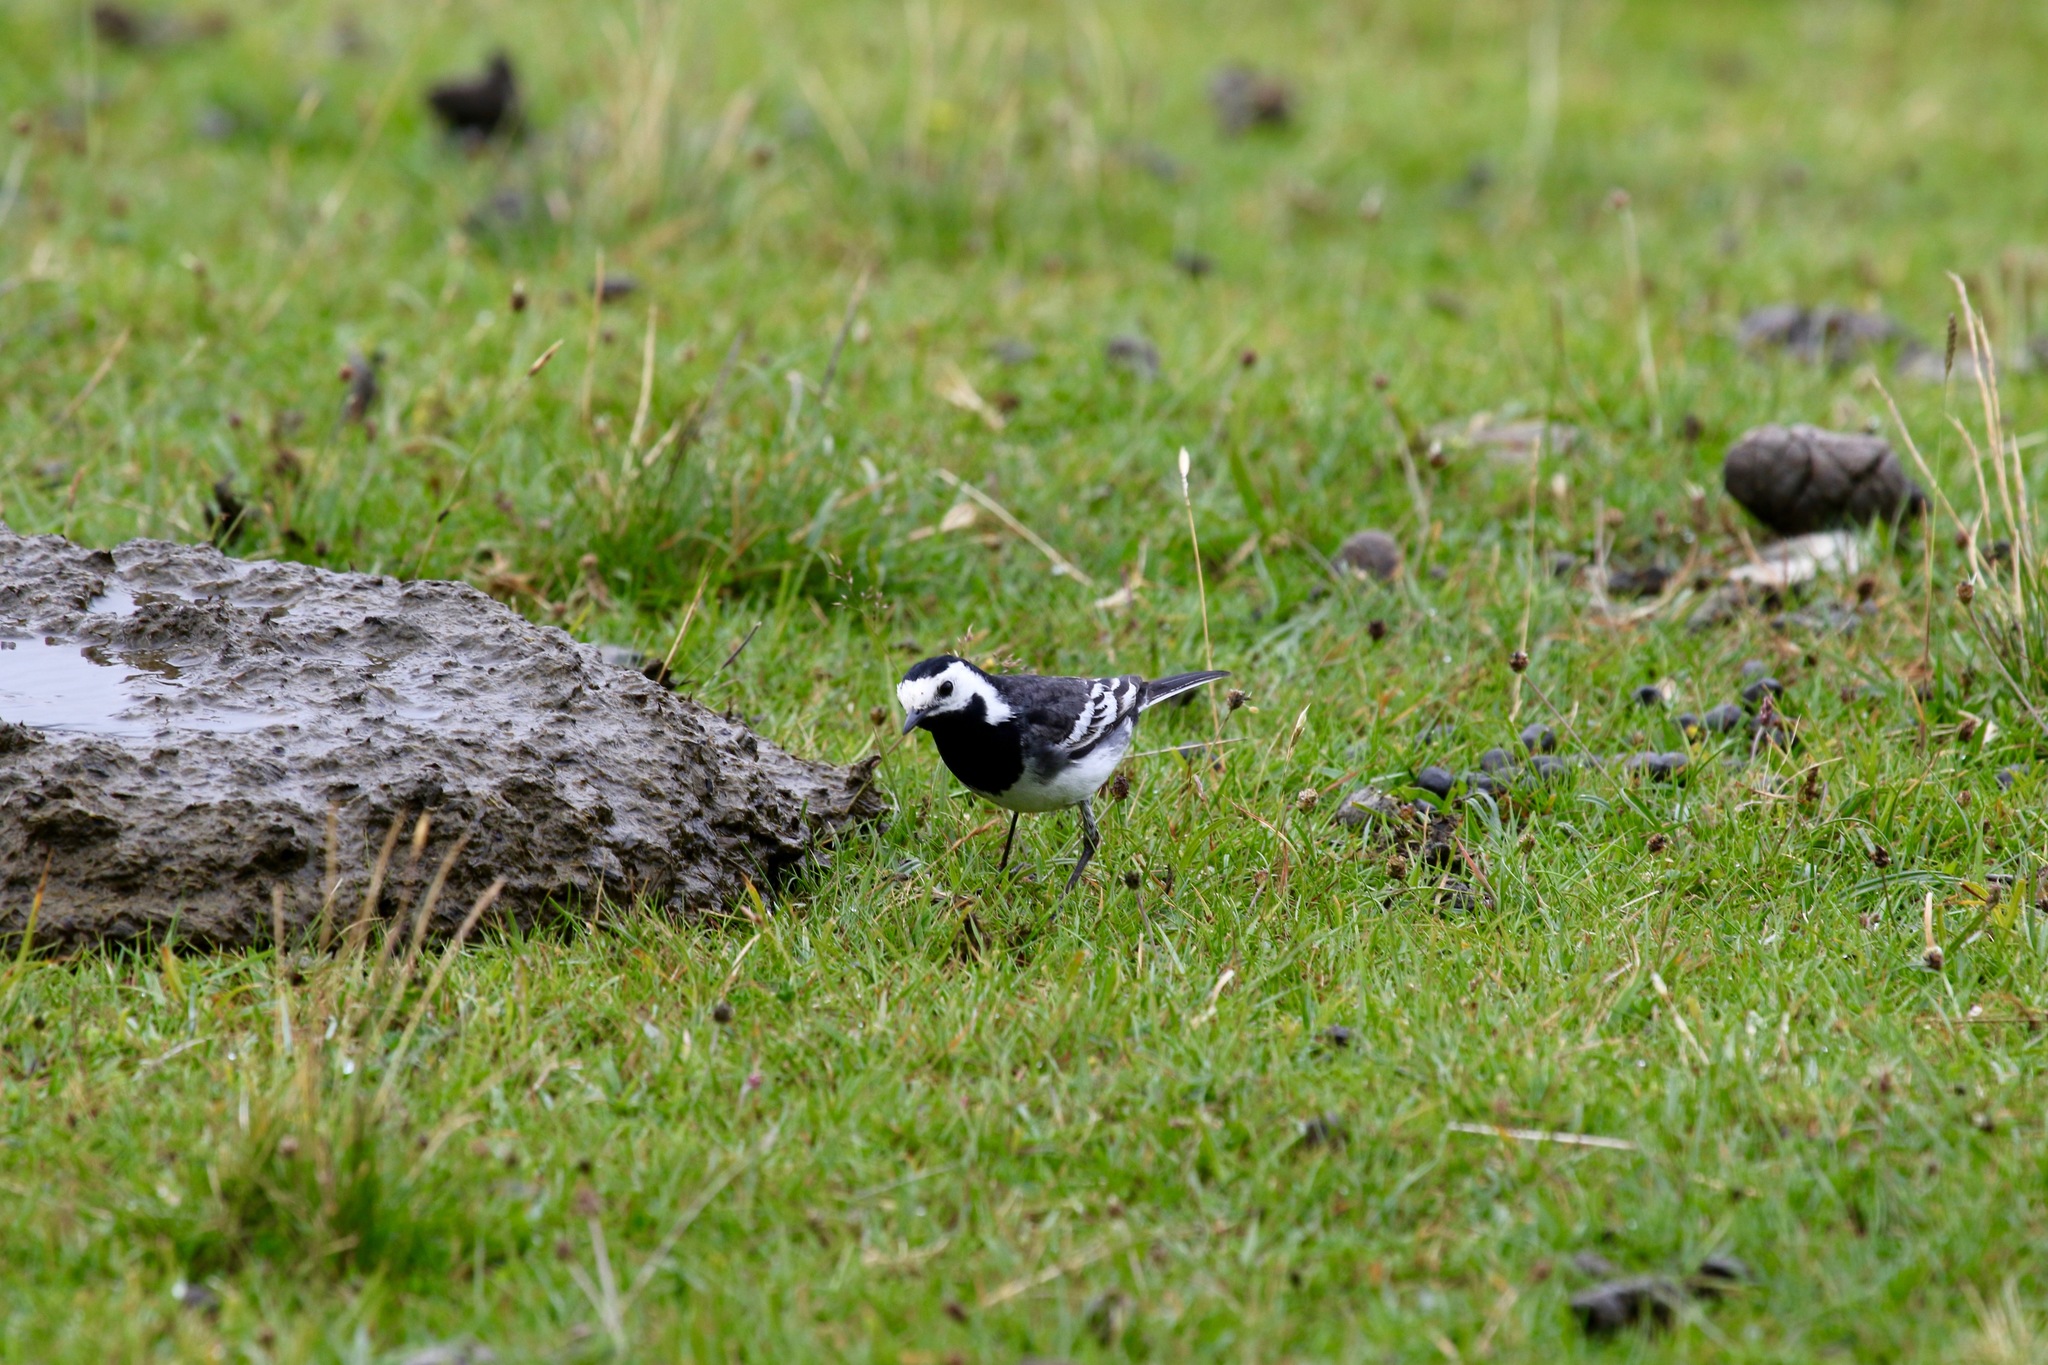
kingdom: Animalia
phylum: Chordata
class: Aves
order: Passeriformes
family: Motacillidae
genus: Motacilla
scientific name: Motacilla alba
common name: White wagtail
